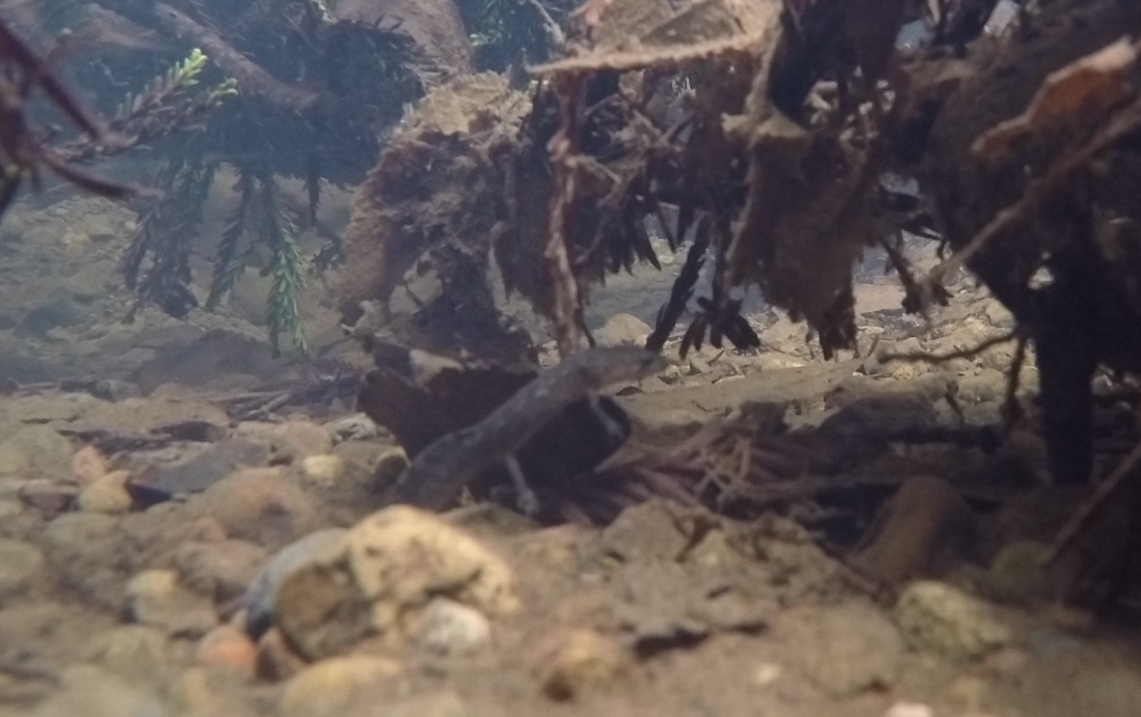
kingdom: Animalia
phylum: Chordata
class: Amphibia
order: Caudata
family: Ambystomatidae
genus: Dicamptodon
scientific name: Dicamptodon ensatus
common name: California giant salamander
